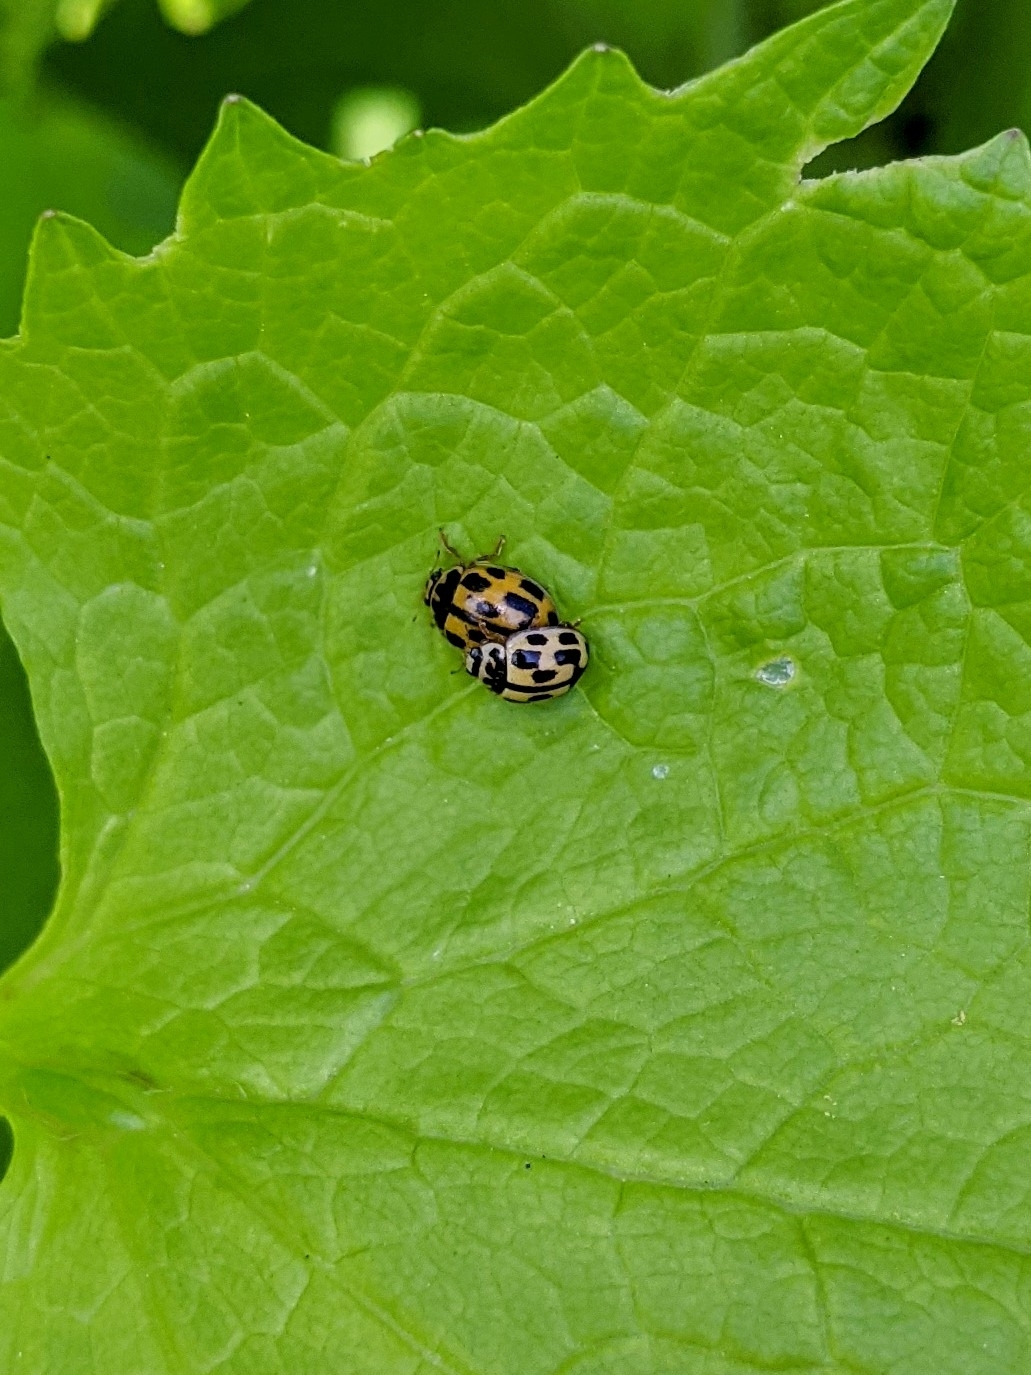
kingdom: Animalia
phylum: Arthropoda
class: Insecta
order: Coleoptera
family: Coccinellidae
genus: Propylaea
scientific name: Propylaea quatuordecimpunctata
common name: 14-spotted ladybird beetle
